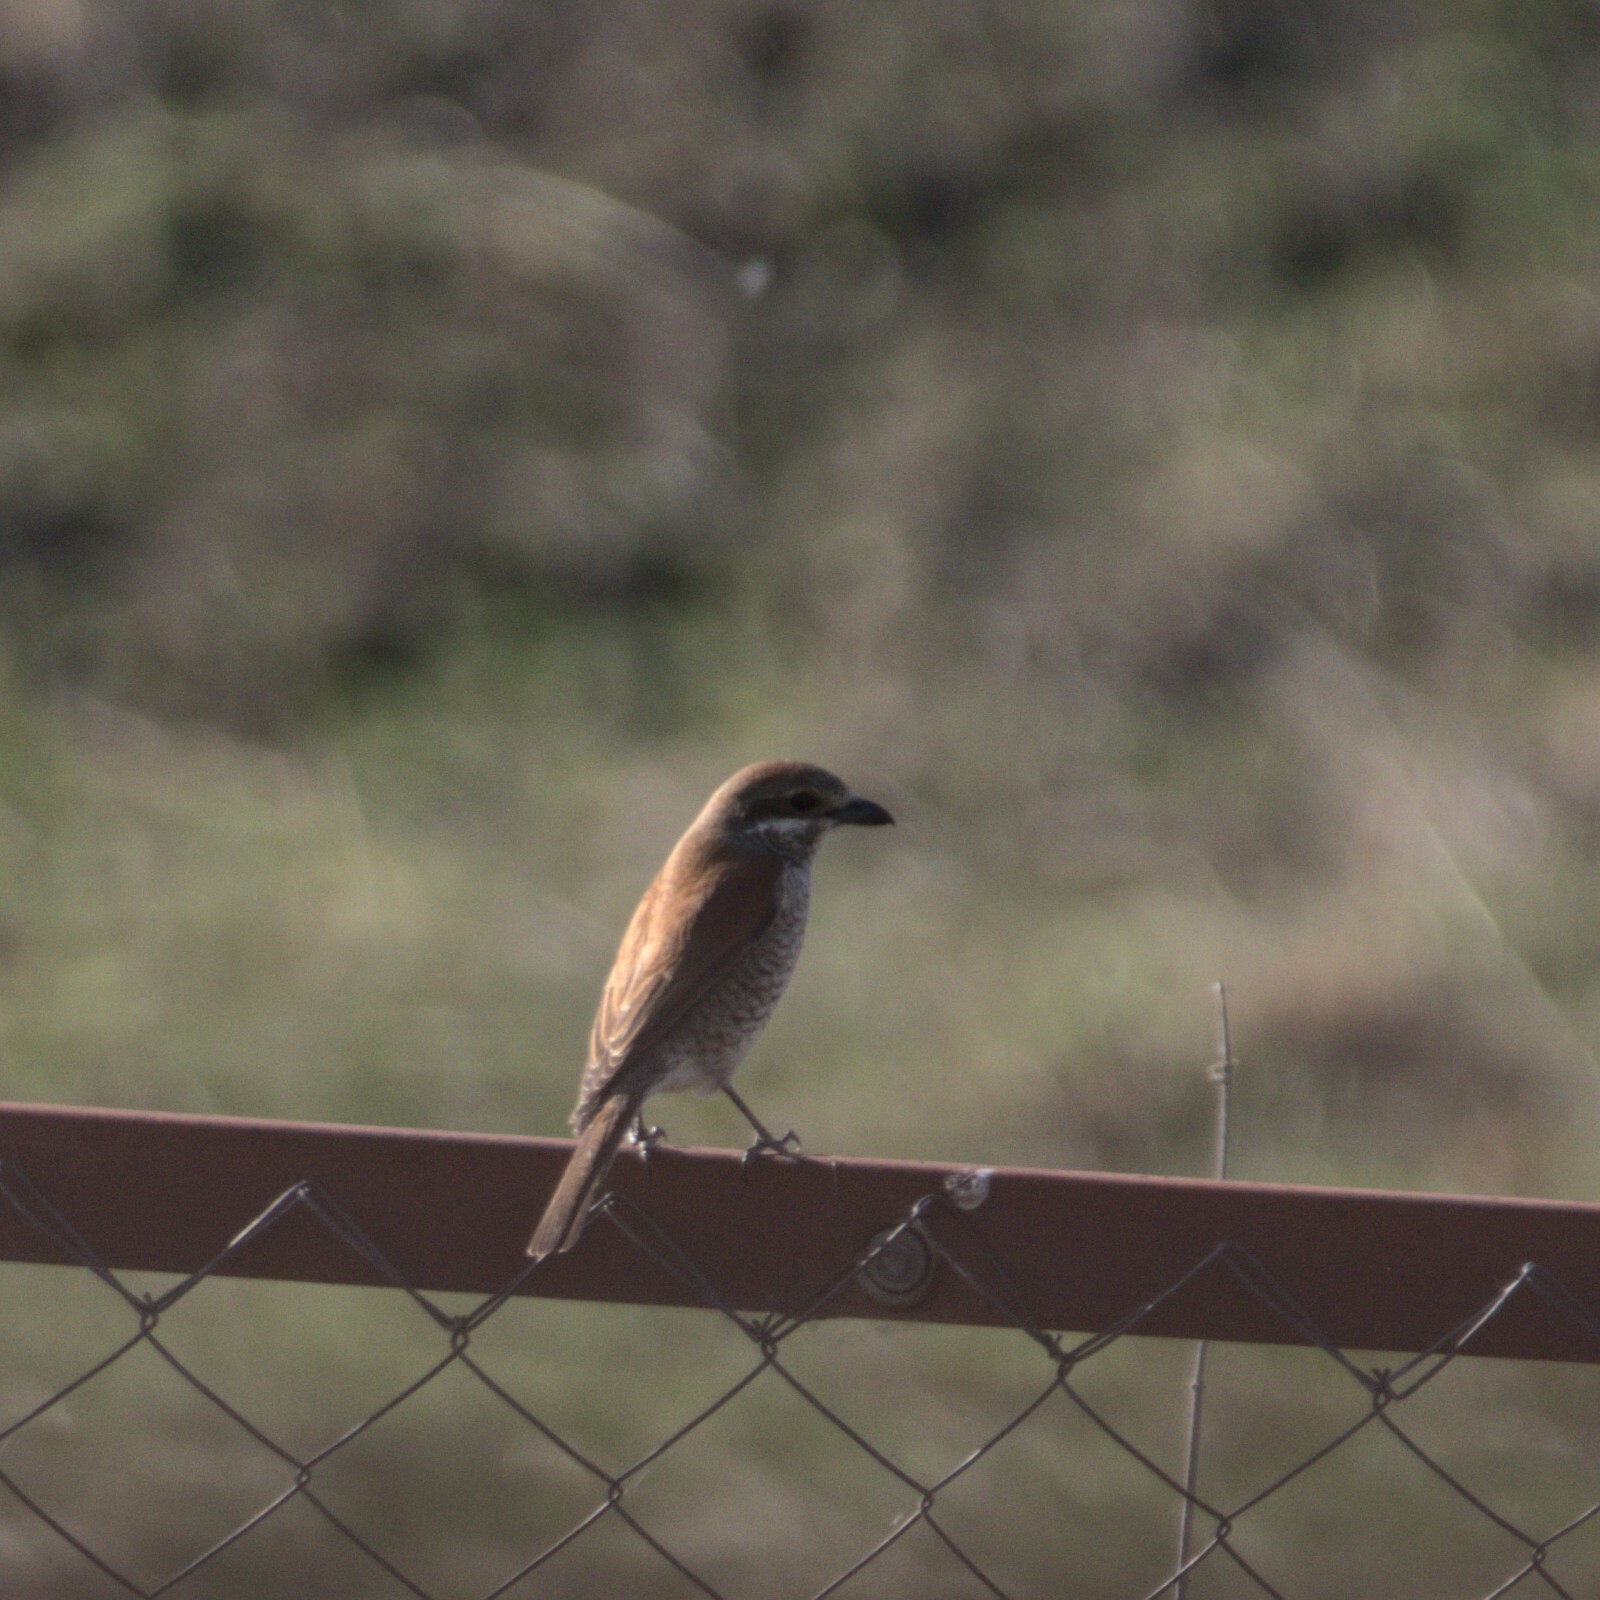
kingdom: Animalia
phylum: Chordata
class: Aves
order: Passeriformes
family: Laniidae
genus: Lanius
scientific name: Lanius collurio
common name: Red-backed shrike
